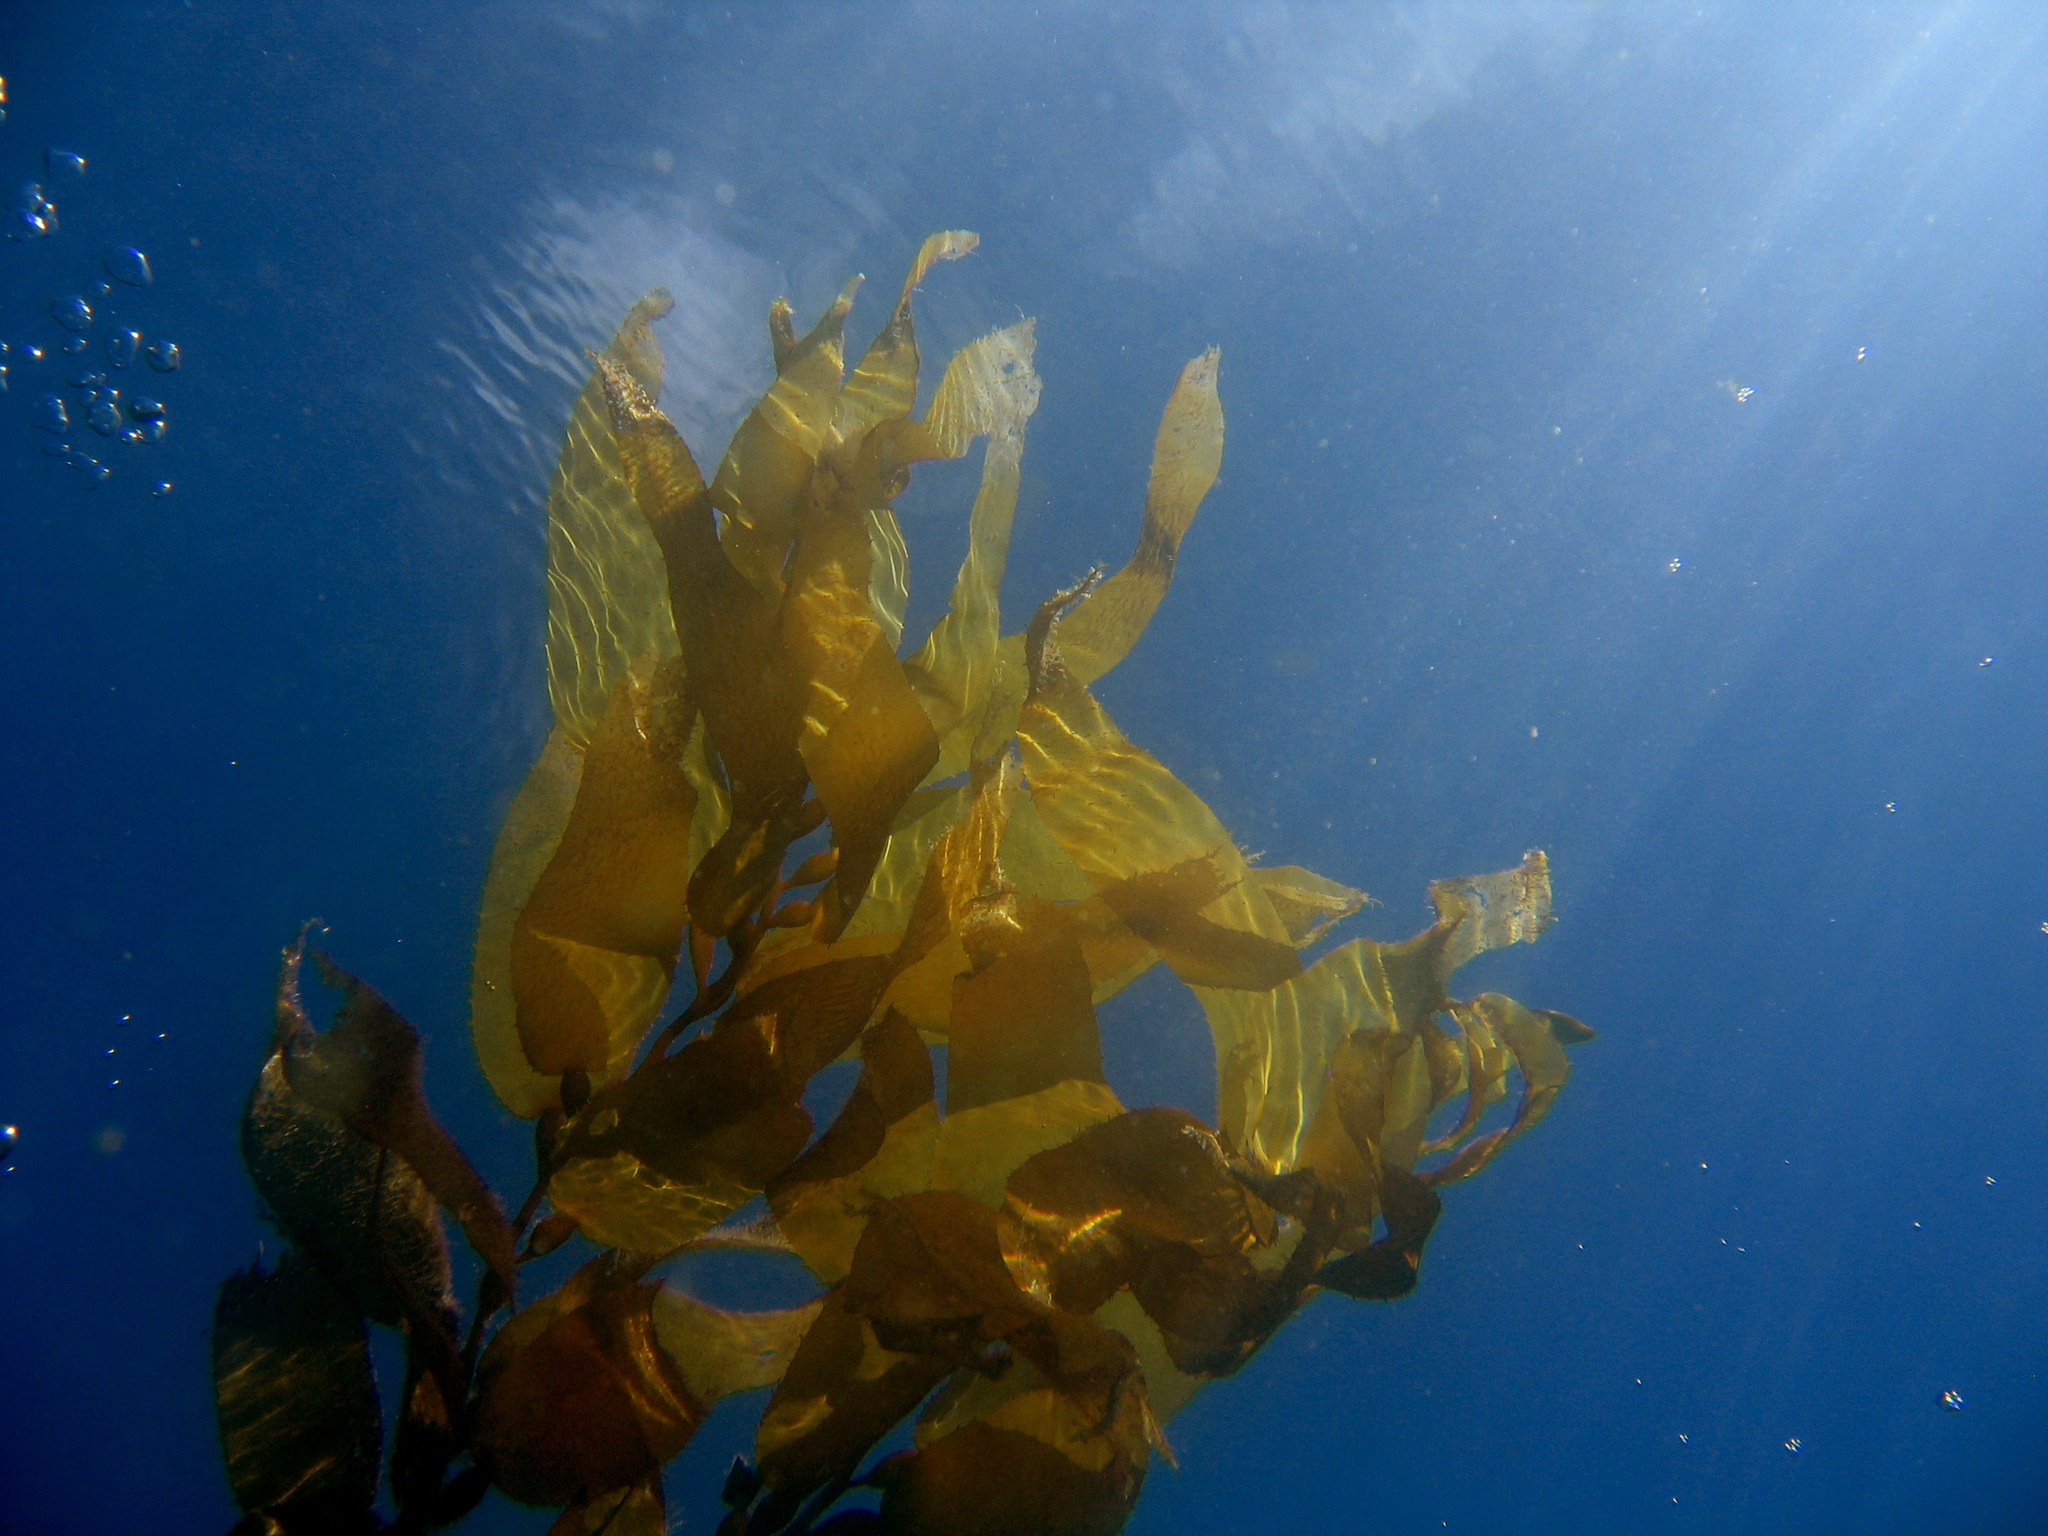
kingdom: Chromista
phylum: Ochrophyta
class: Phaeophyceae
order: Laminariales
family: Laminariaceae
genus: Macrocystis
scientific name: Macrocystis pyrifera
